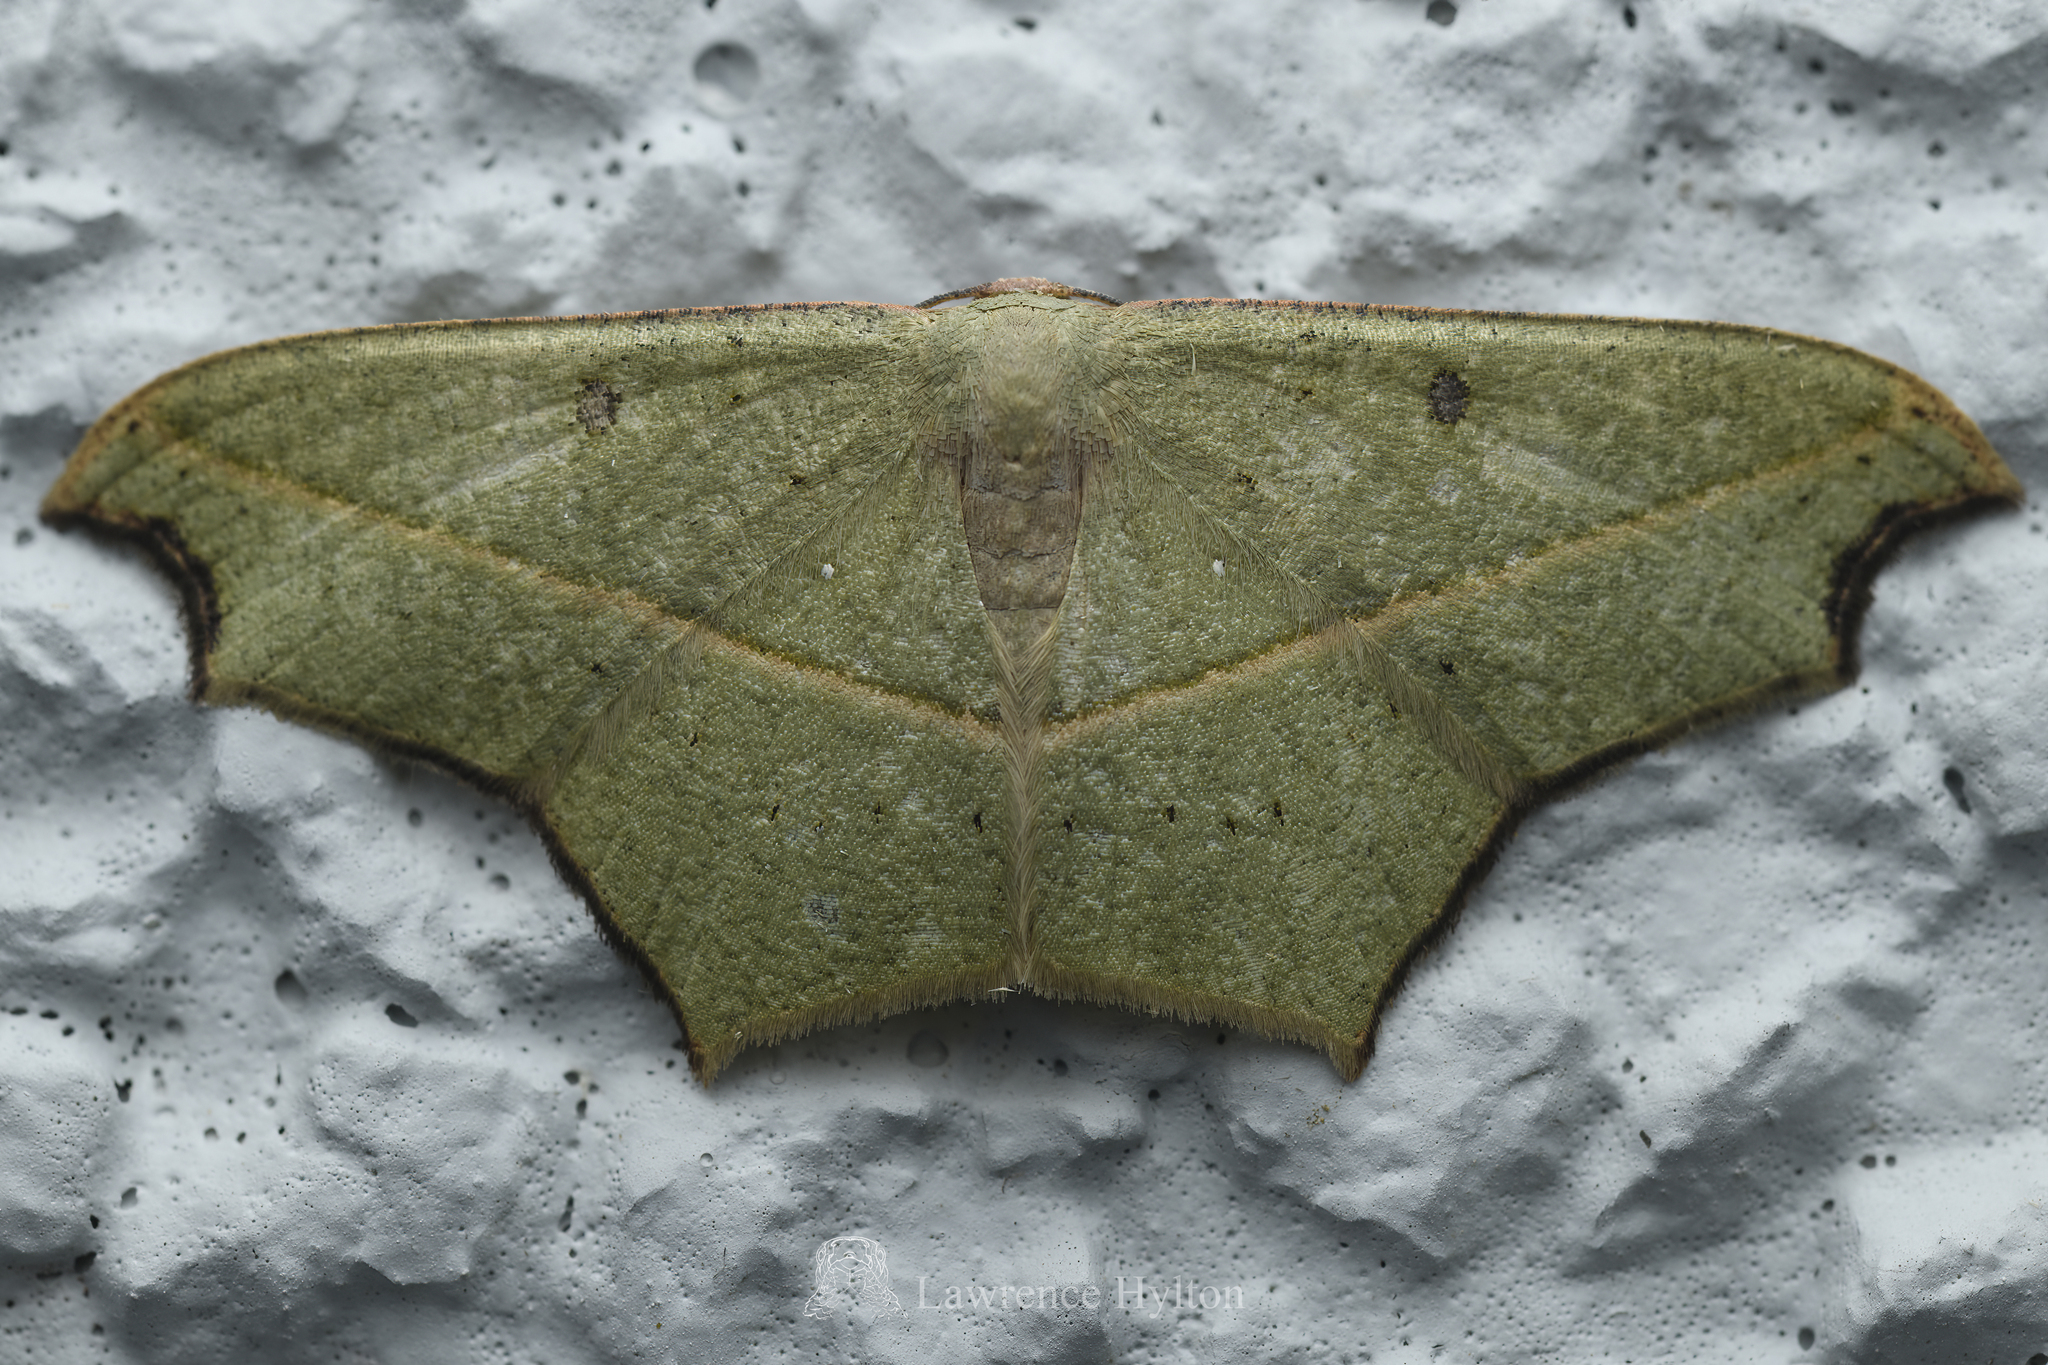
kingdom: Animalia
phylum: Arthropoda
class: Insecta
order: Lepidoptera
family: Geometridae
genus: Traminda
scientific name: Traminda aventiaria
